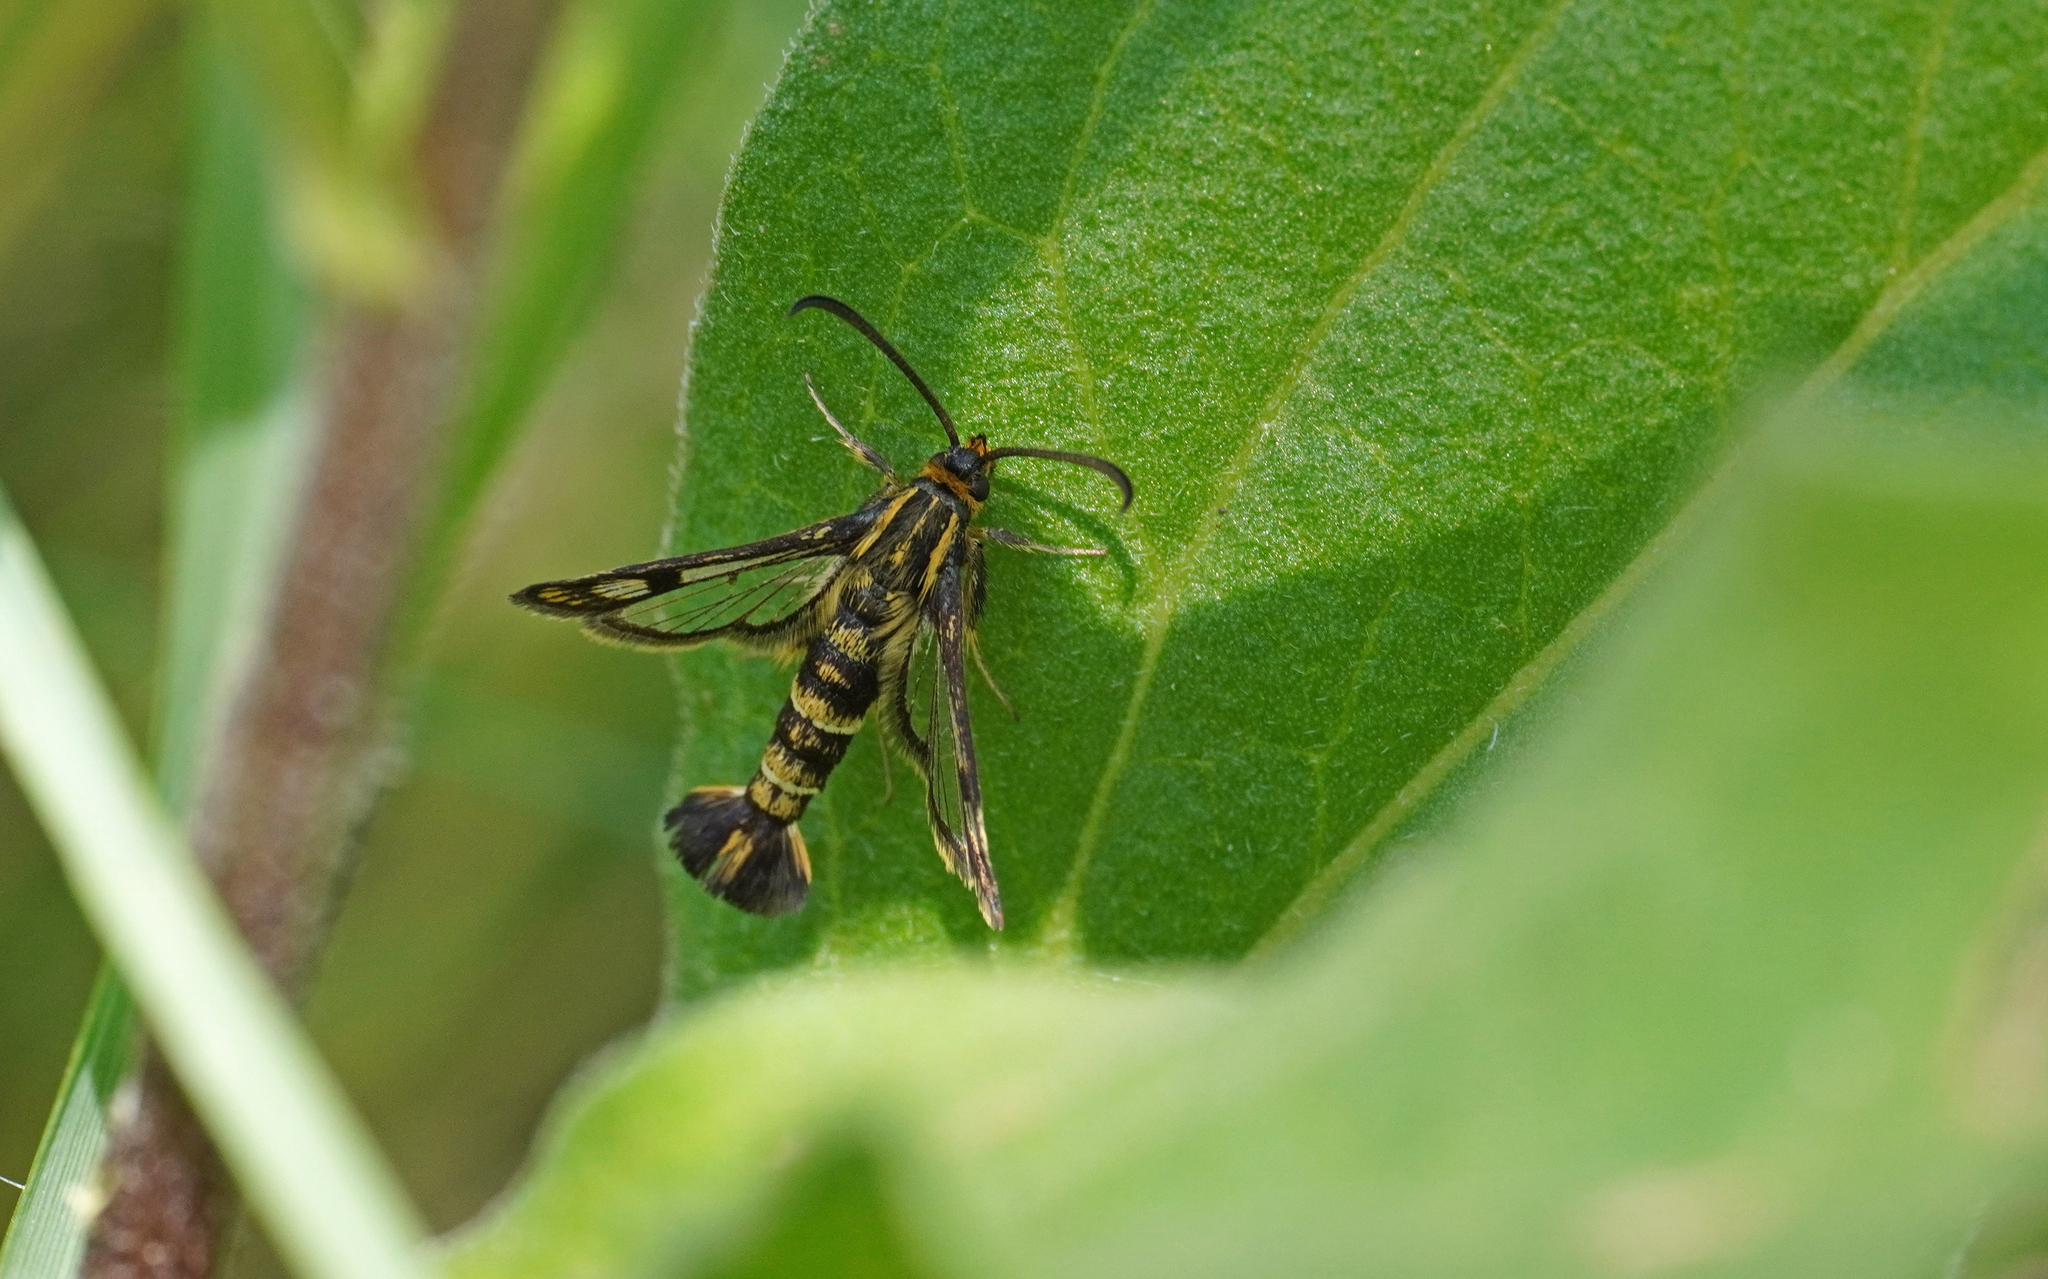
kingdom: Animalia
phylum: Arthropoda
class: Insecta
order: Lepidoptera
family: Sesiidae
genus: Chamaesphecia
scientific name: Chamaesphecia empiformis
